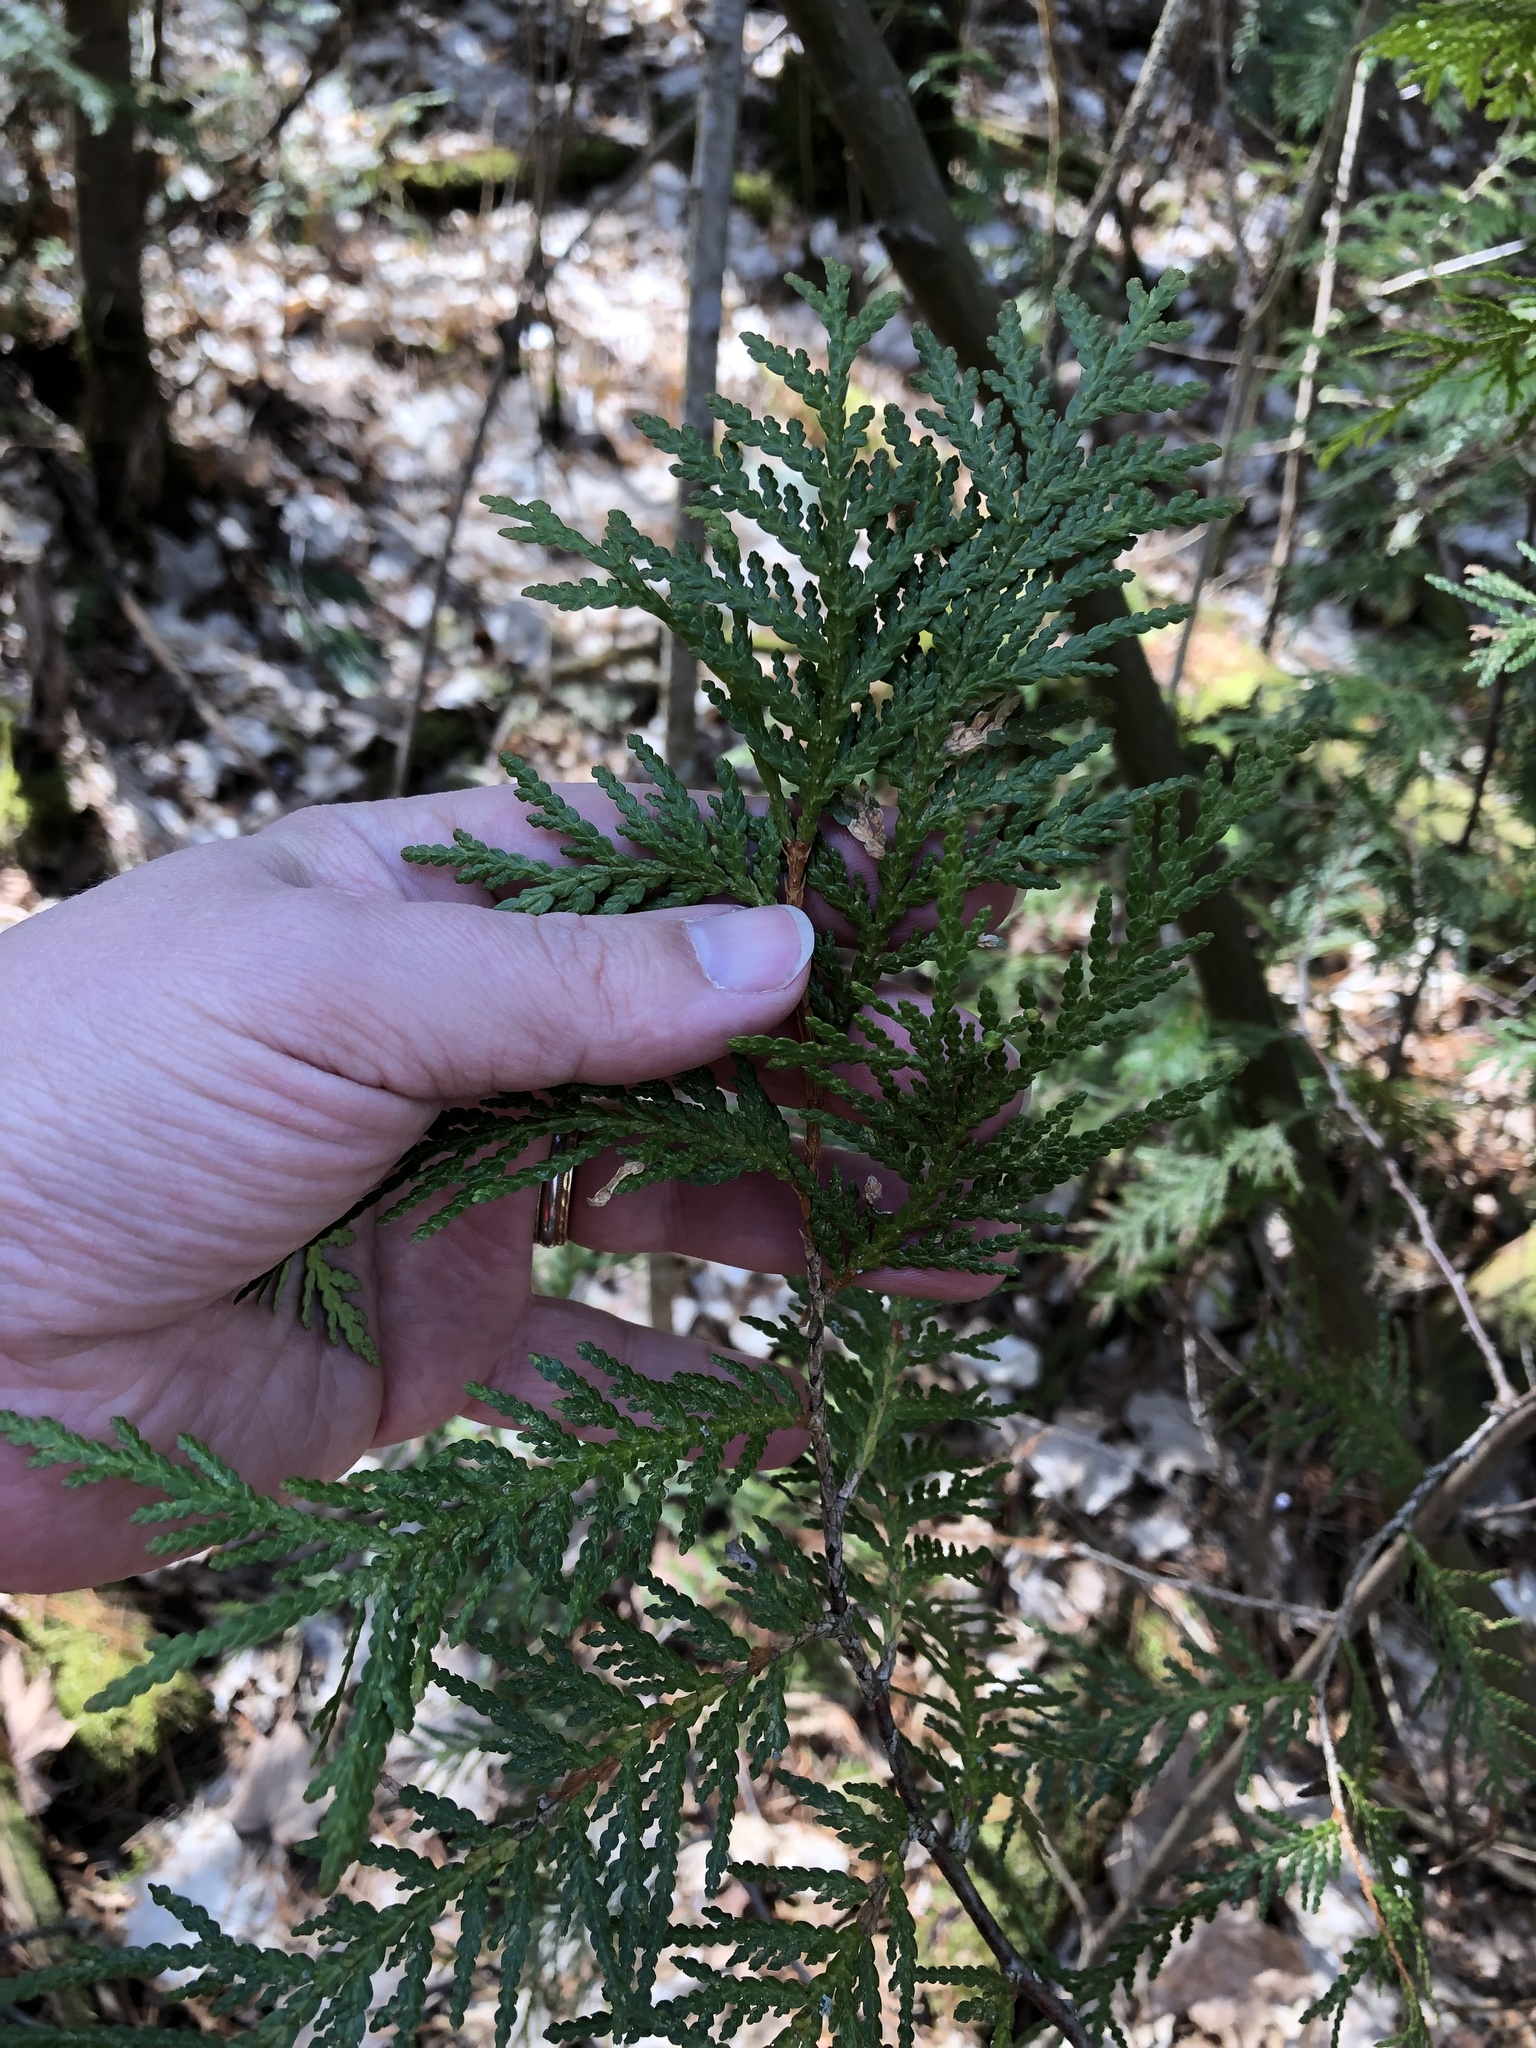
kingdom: Plantae
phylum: Tracheophyta
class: Pinopsida
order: Pinales
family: Cupressaceae
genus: Thuja
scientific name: Thuja occidentalis
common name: Northern white-cedar
